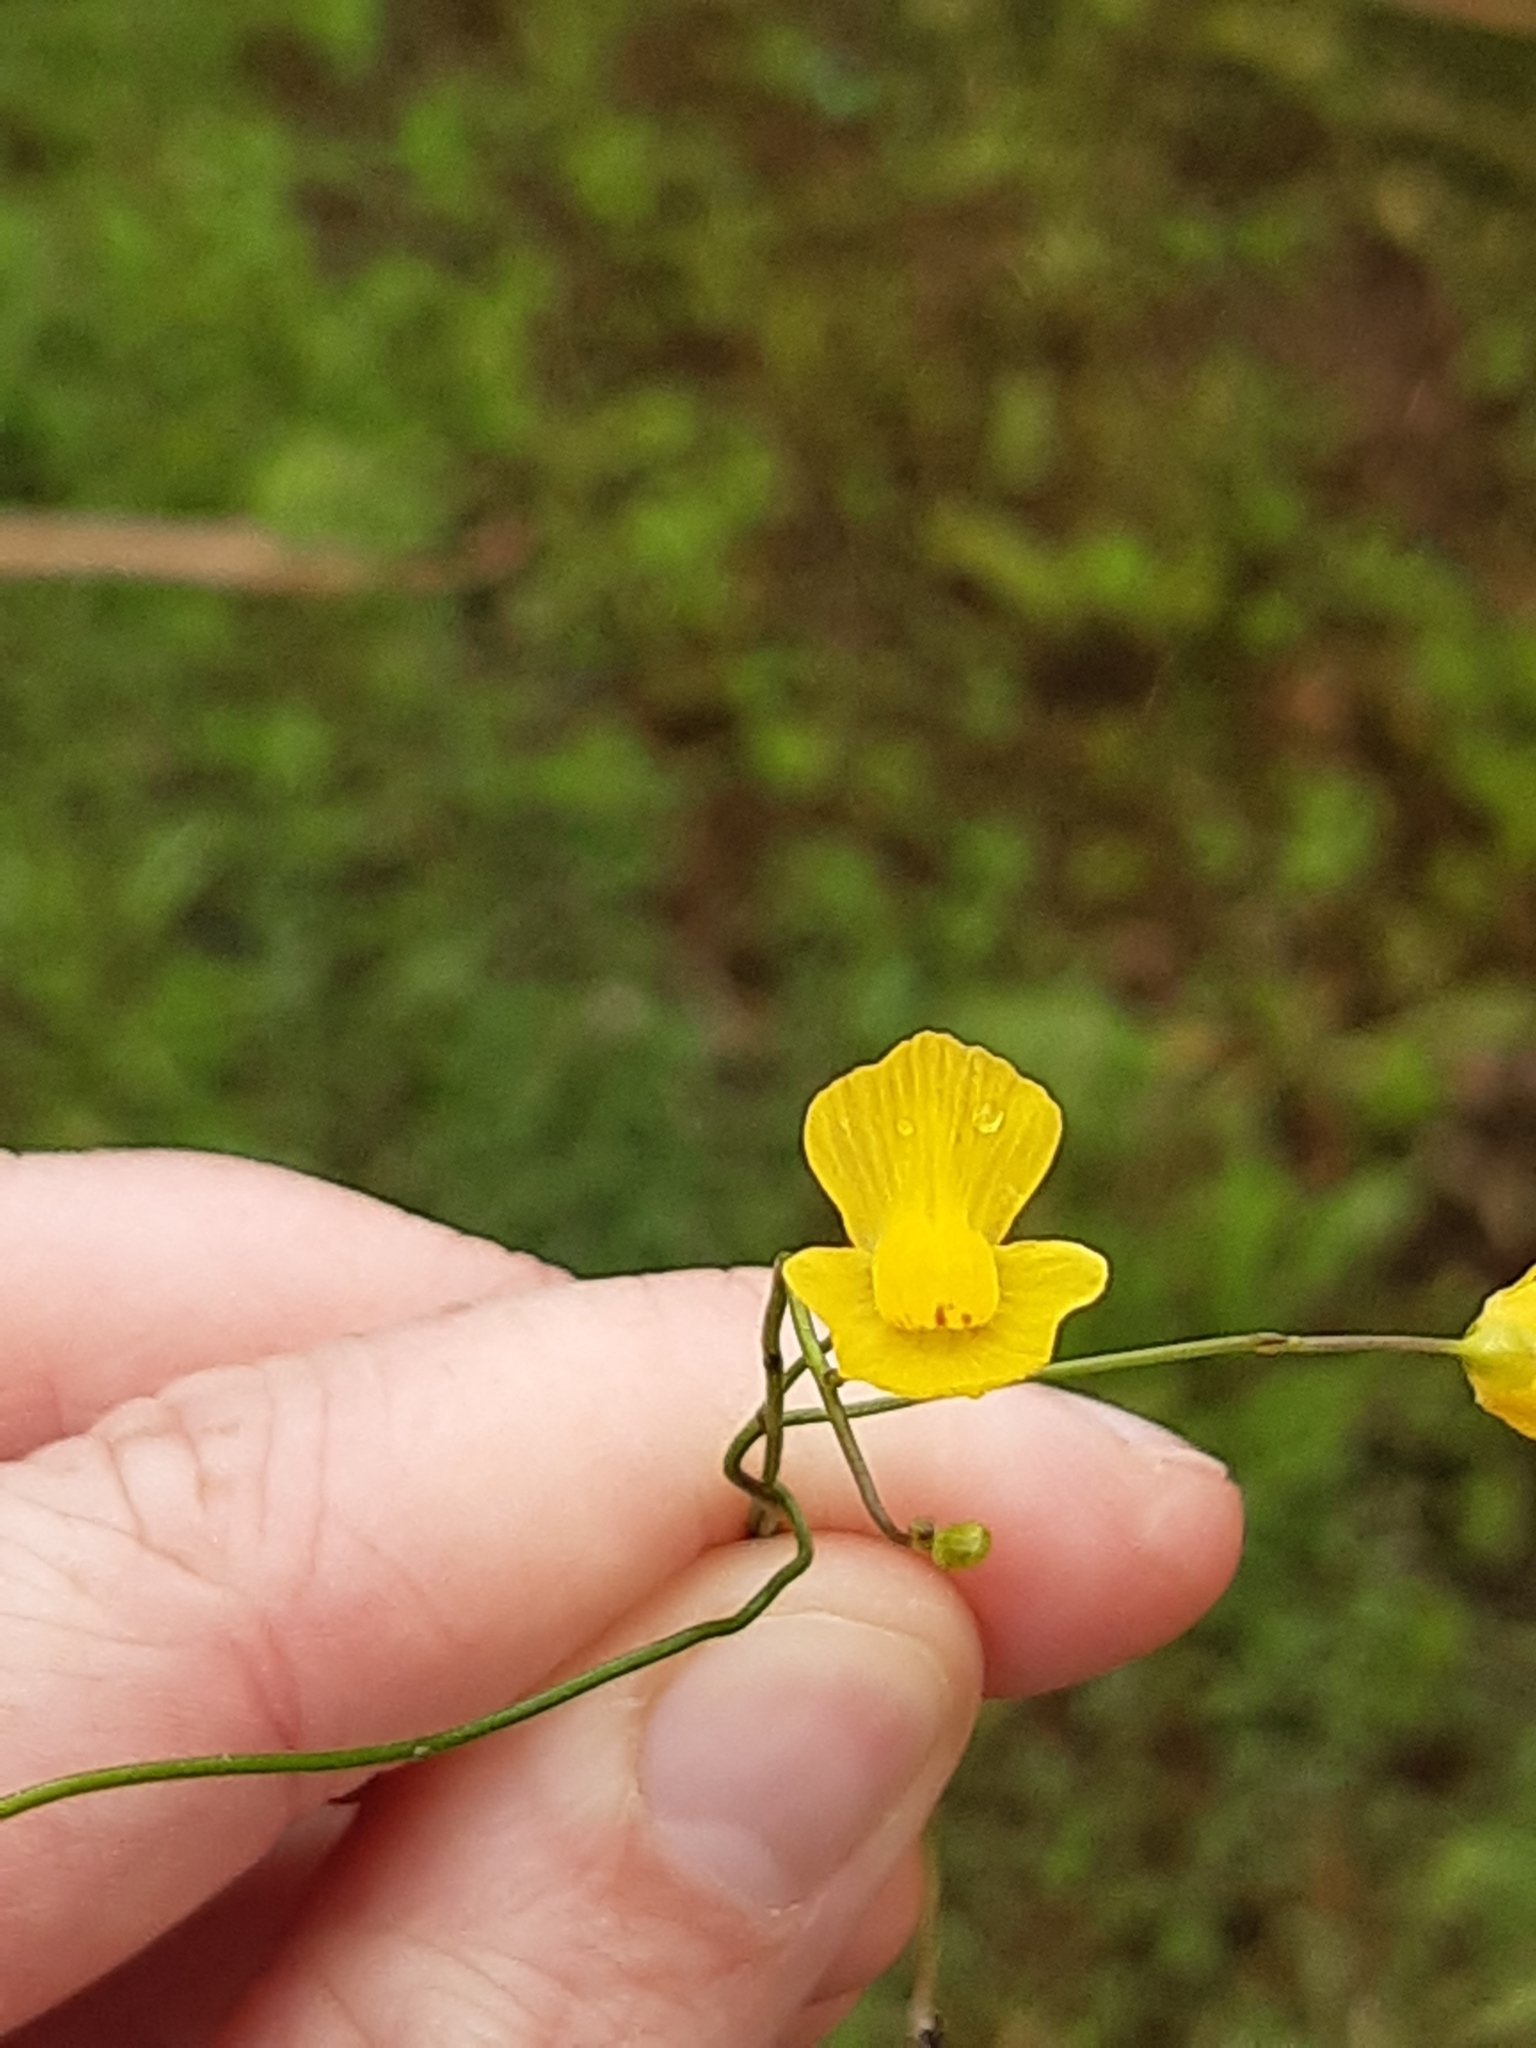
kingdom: Plantae
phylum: Tracheophyta
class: Magnoliopsida
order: Lamiales
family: Lentibulariaceae
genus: Utricularia
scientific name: Utricularia gibba
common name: Humped bladderwort
